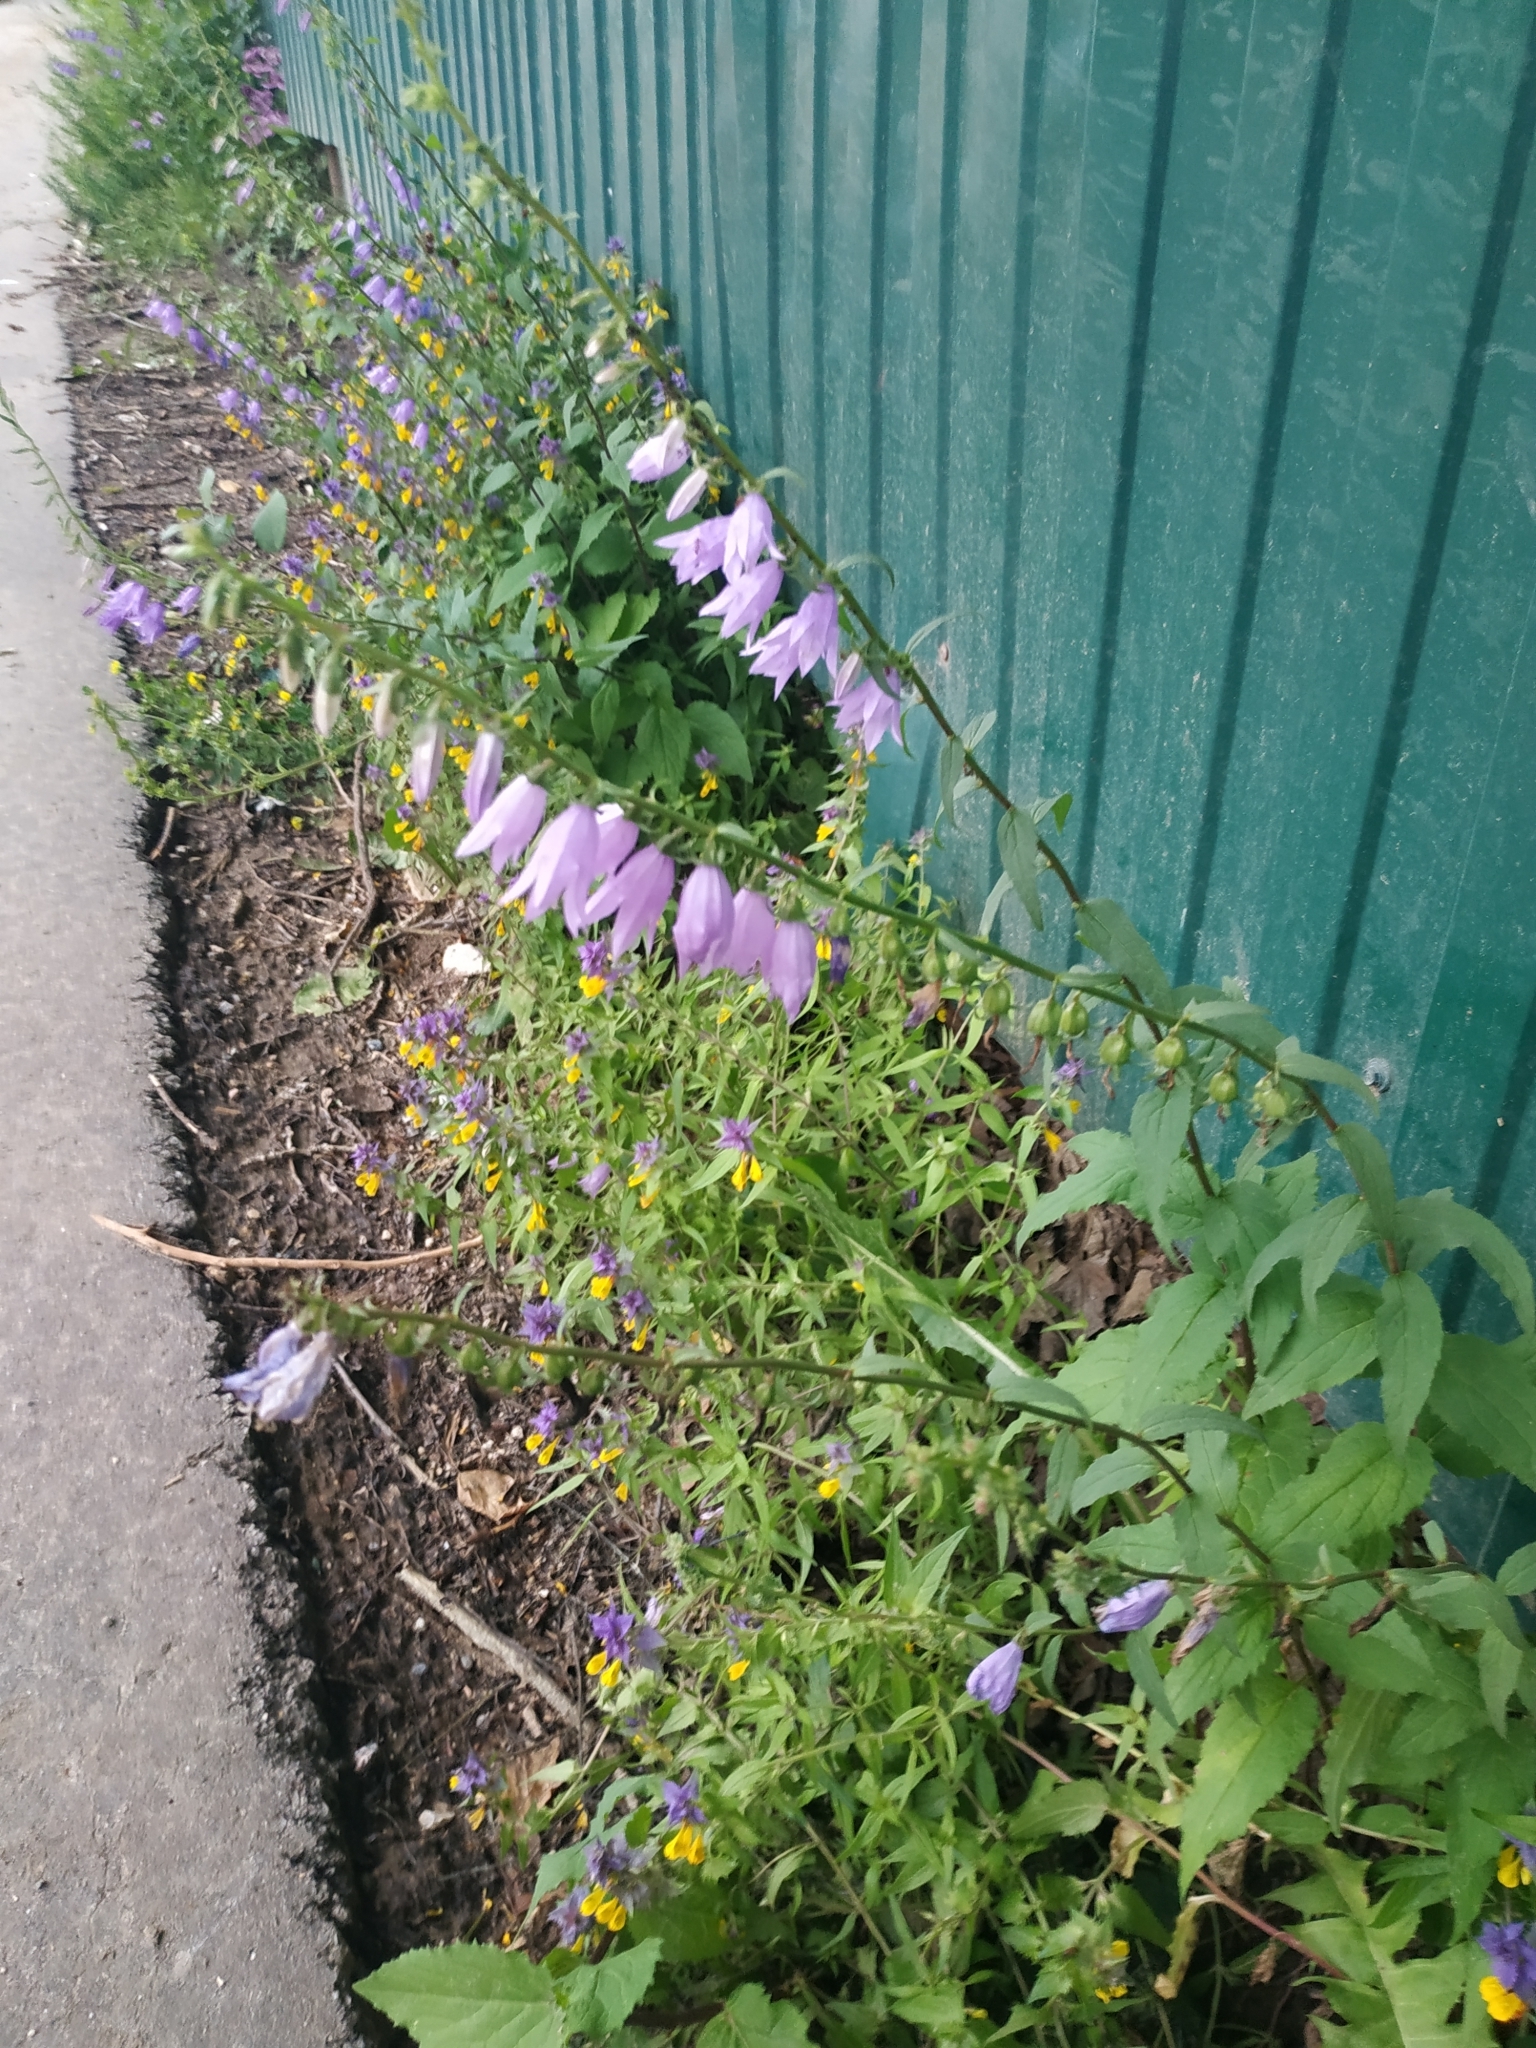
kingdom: Plantae
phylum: Tracheophyta
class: Magnoliopsida
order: Asterales
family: Campanulaceae
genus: Campanula
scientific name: Campanula rapunculoides
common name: Creeping bellflower
